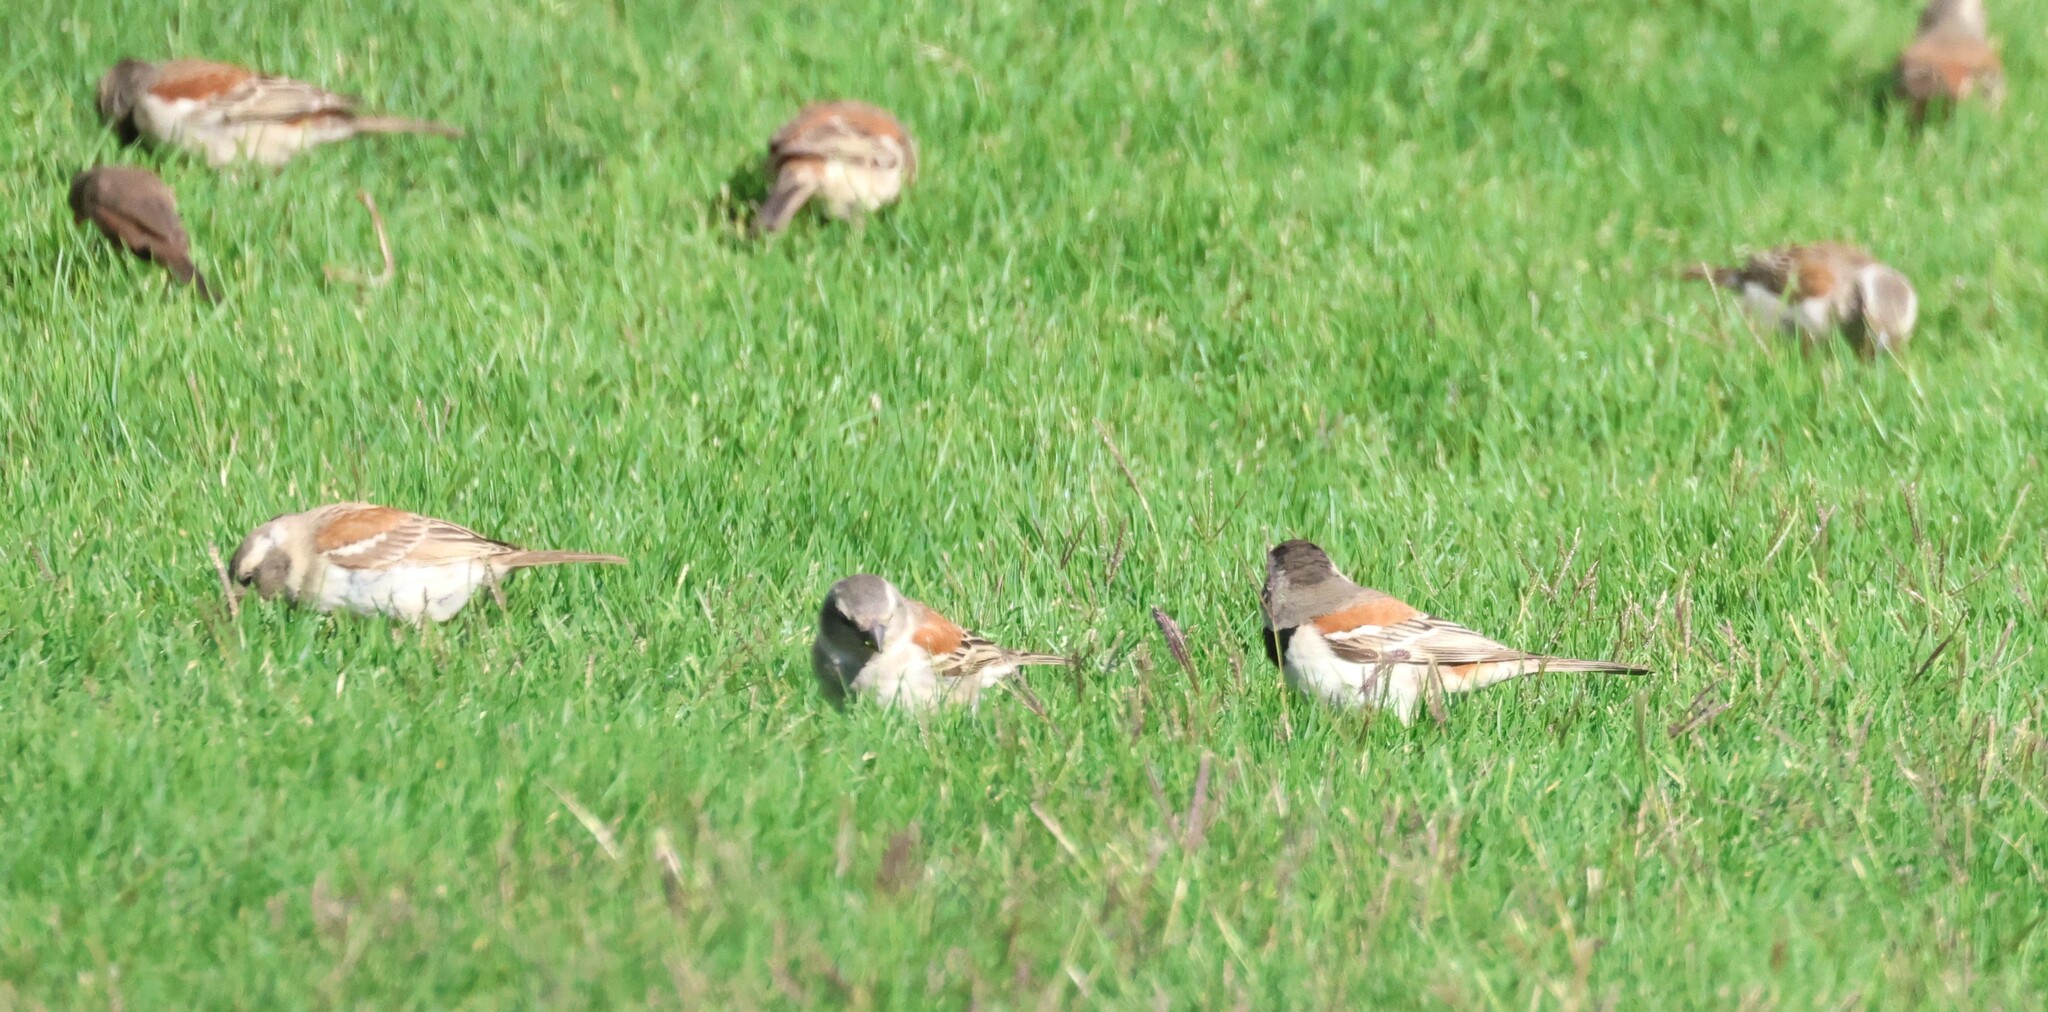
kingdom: Animalia
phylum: Chordata
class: Aves
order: Passeriformes
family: Passeridae
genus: Passer
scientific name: Passer melanurus
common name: Cape sparrow
